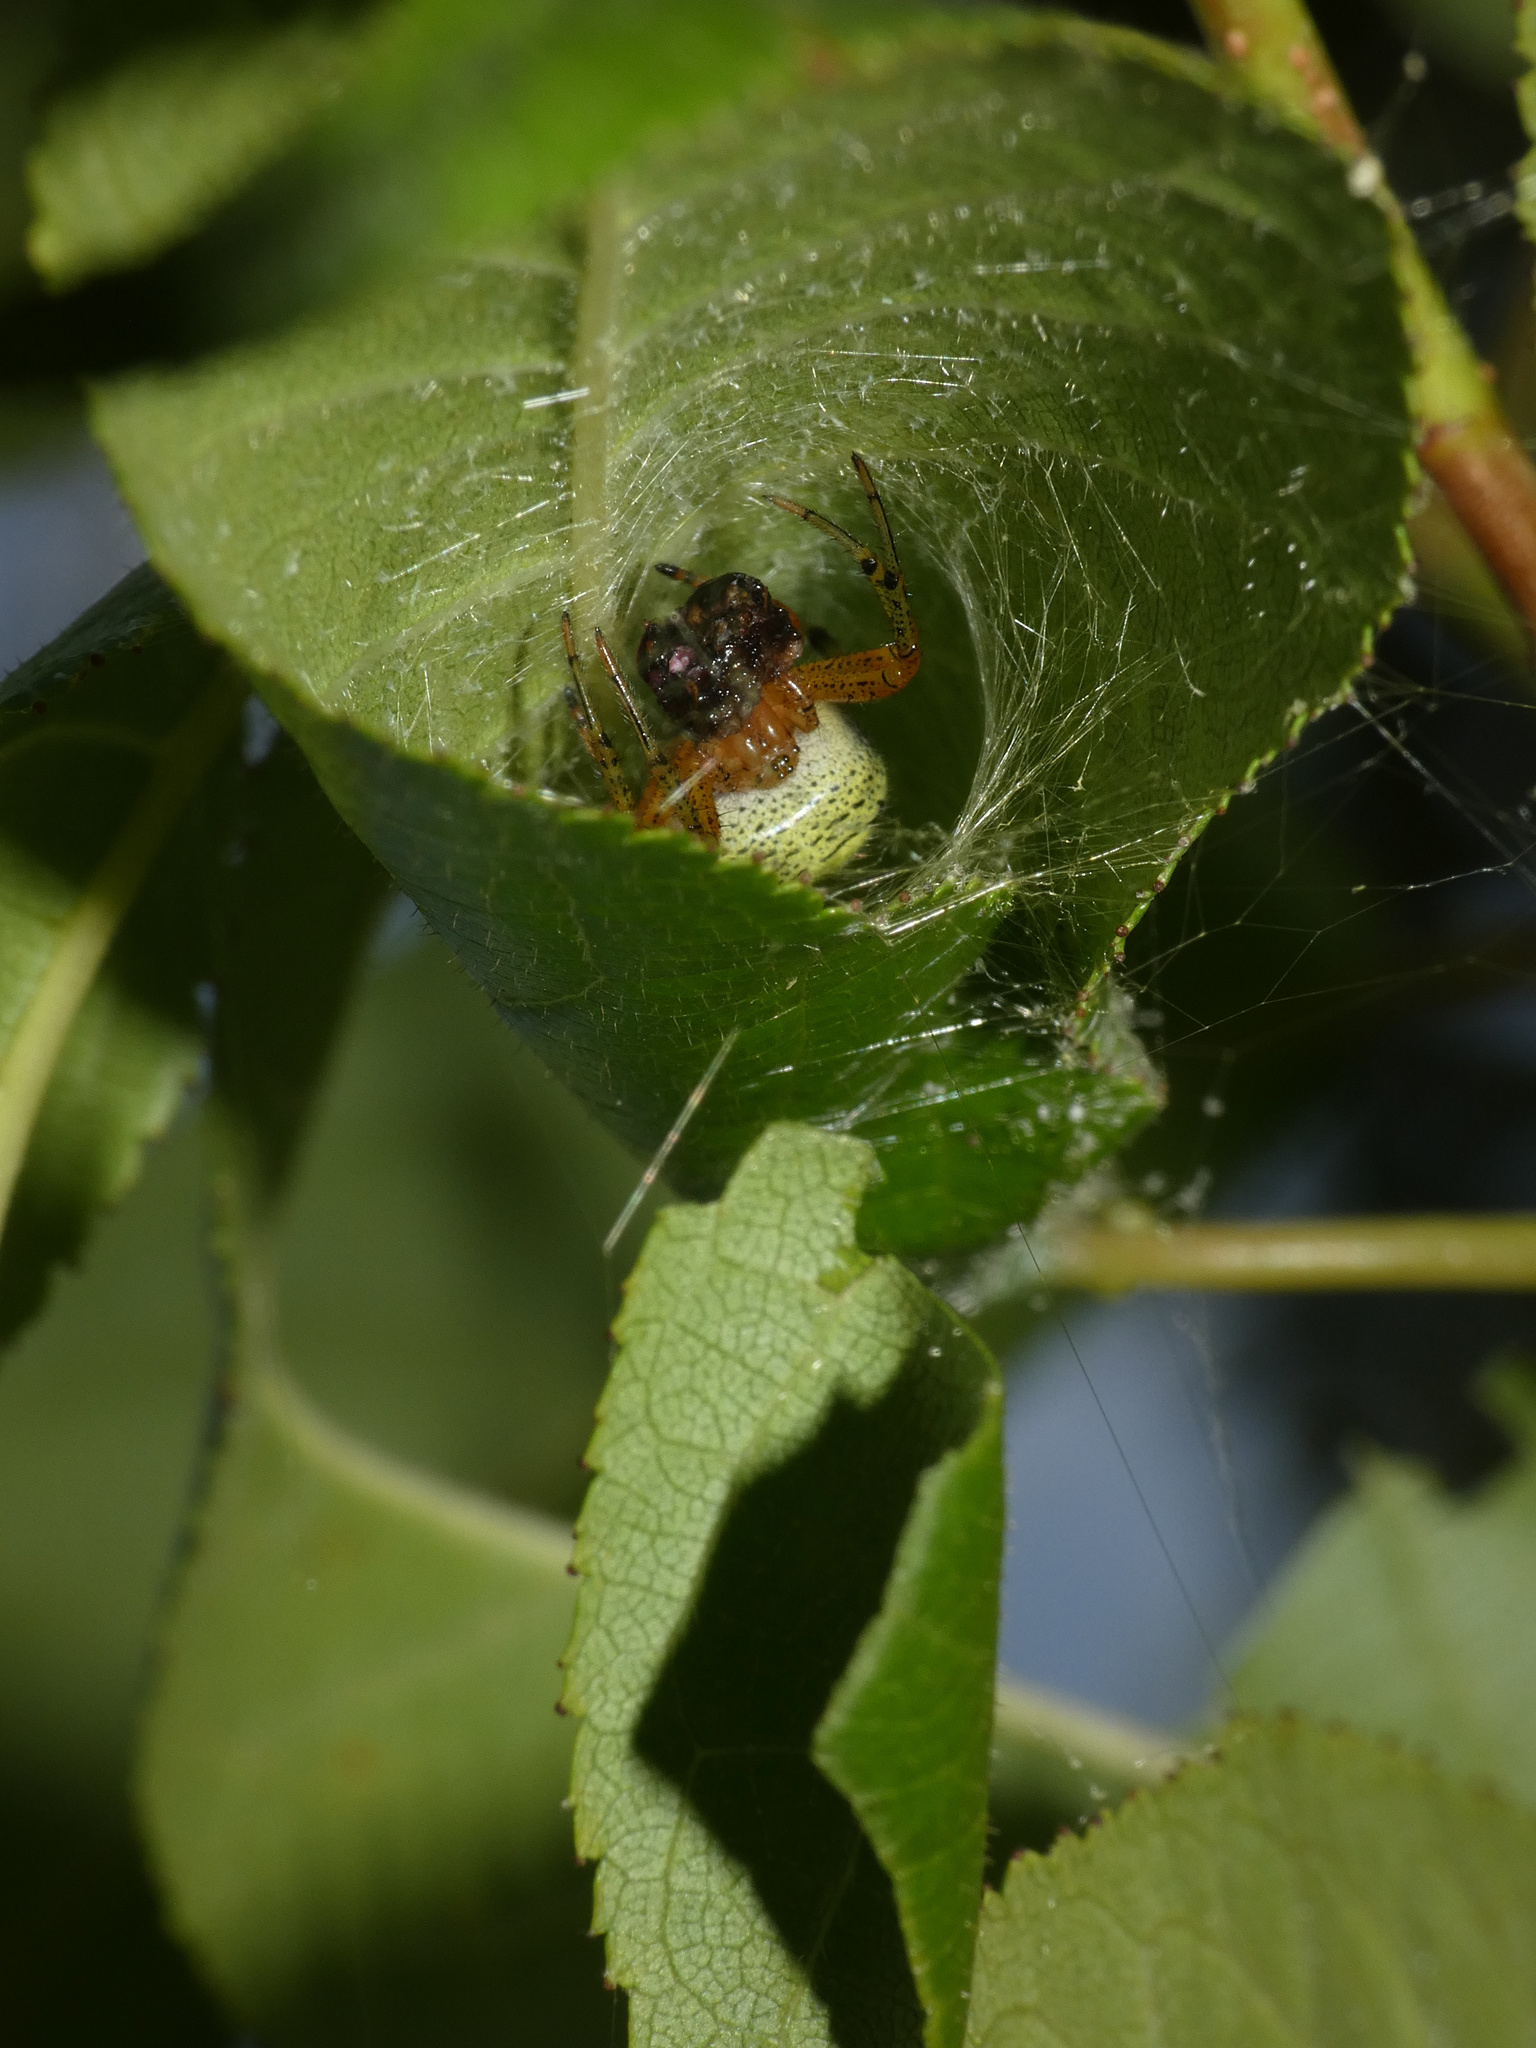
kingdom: Animalia
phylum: Arthropoda
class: Arachnida
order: Araneae
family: Araneidae
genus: Neoscona
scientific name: Neoscona rufipalpis
